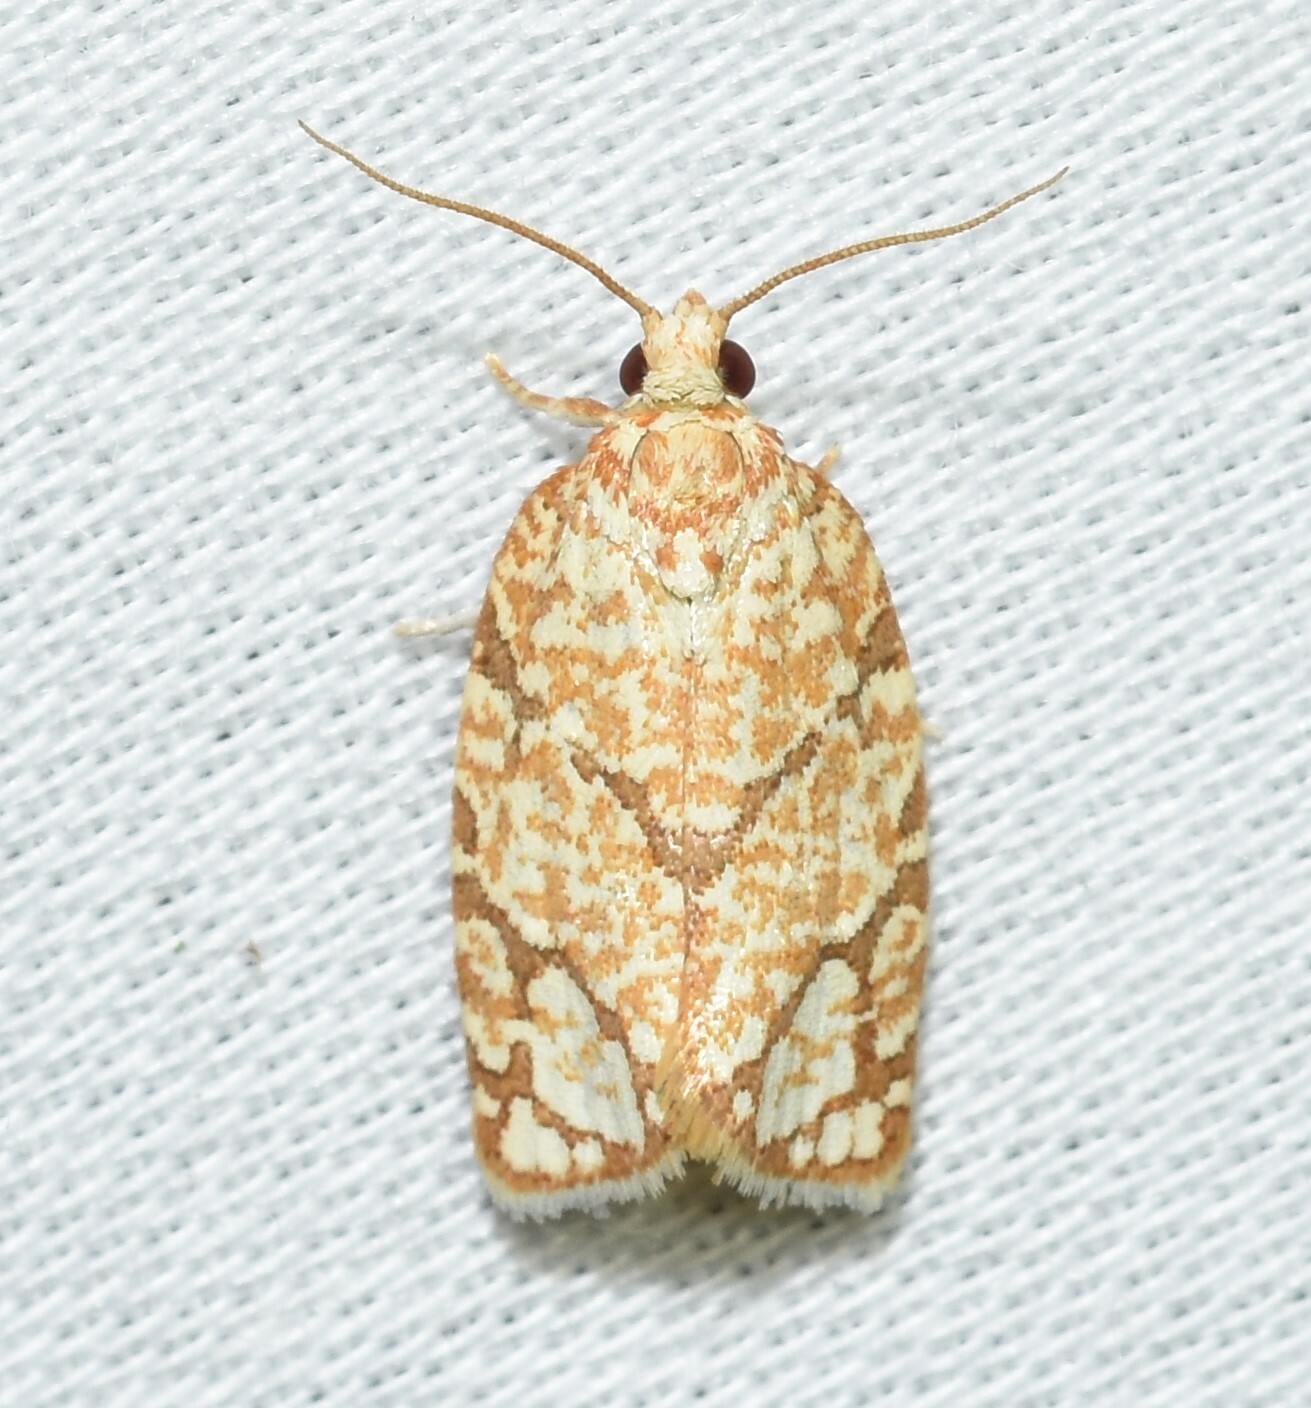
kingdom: Animalia
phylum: Arthropoda
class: Insecta
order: Lepidoptera
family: Tortricidae
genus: Argyrotaenia
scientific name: Argyrotaenia quercifoliana
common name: Yellow-winged oak leafroller moth
